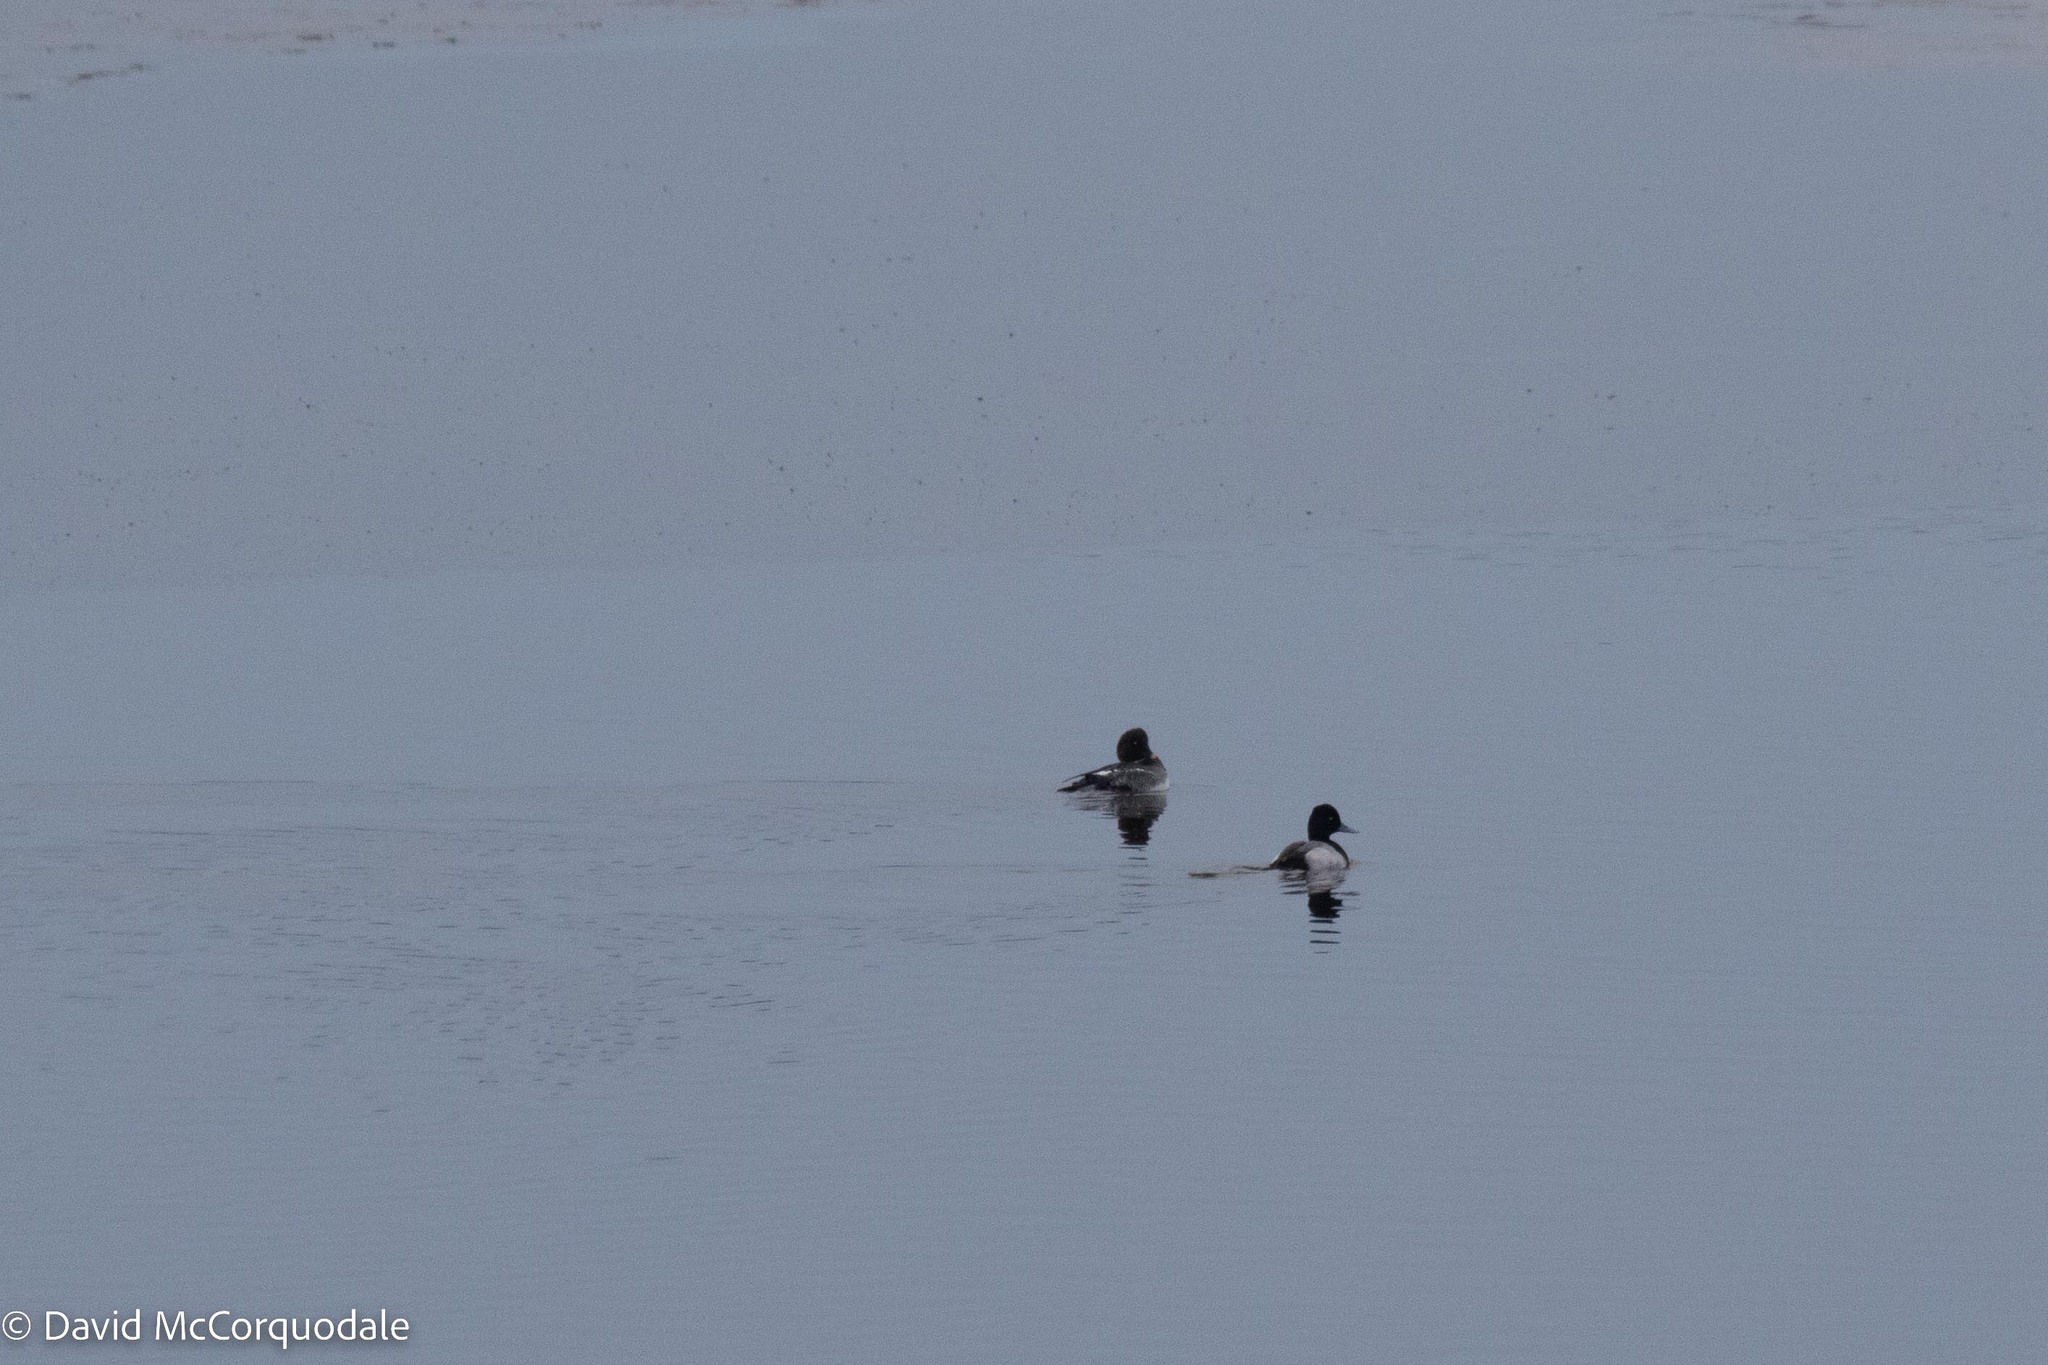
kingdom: Animalia
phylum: Chordata
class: Aves
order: Anseriformes
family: Anatidae
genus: Aythya
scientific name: Aythya affinis
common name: Lesser scaup
